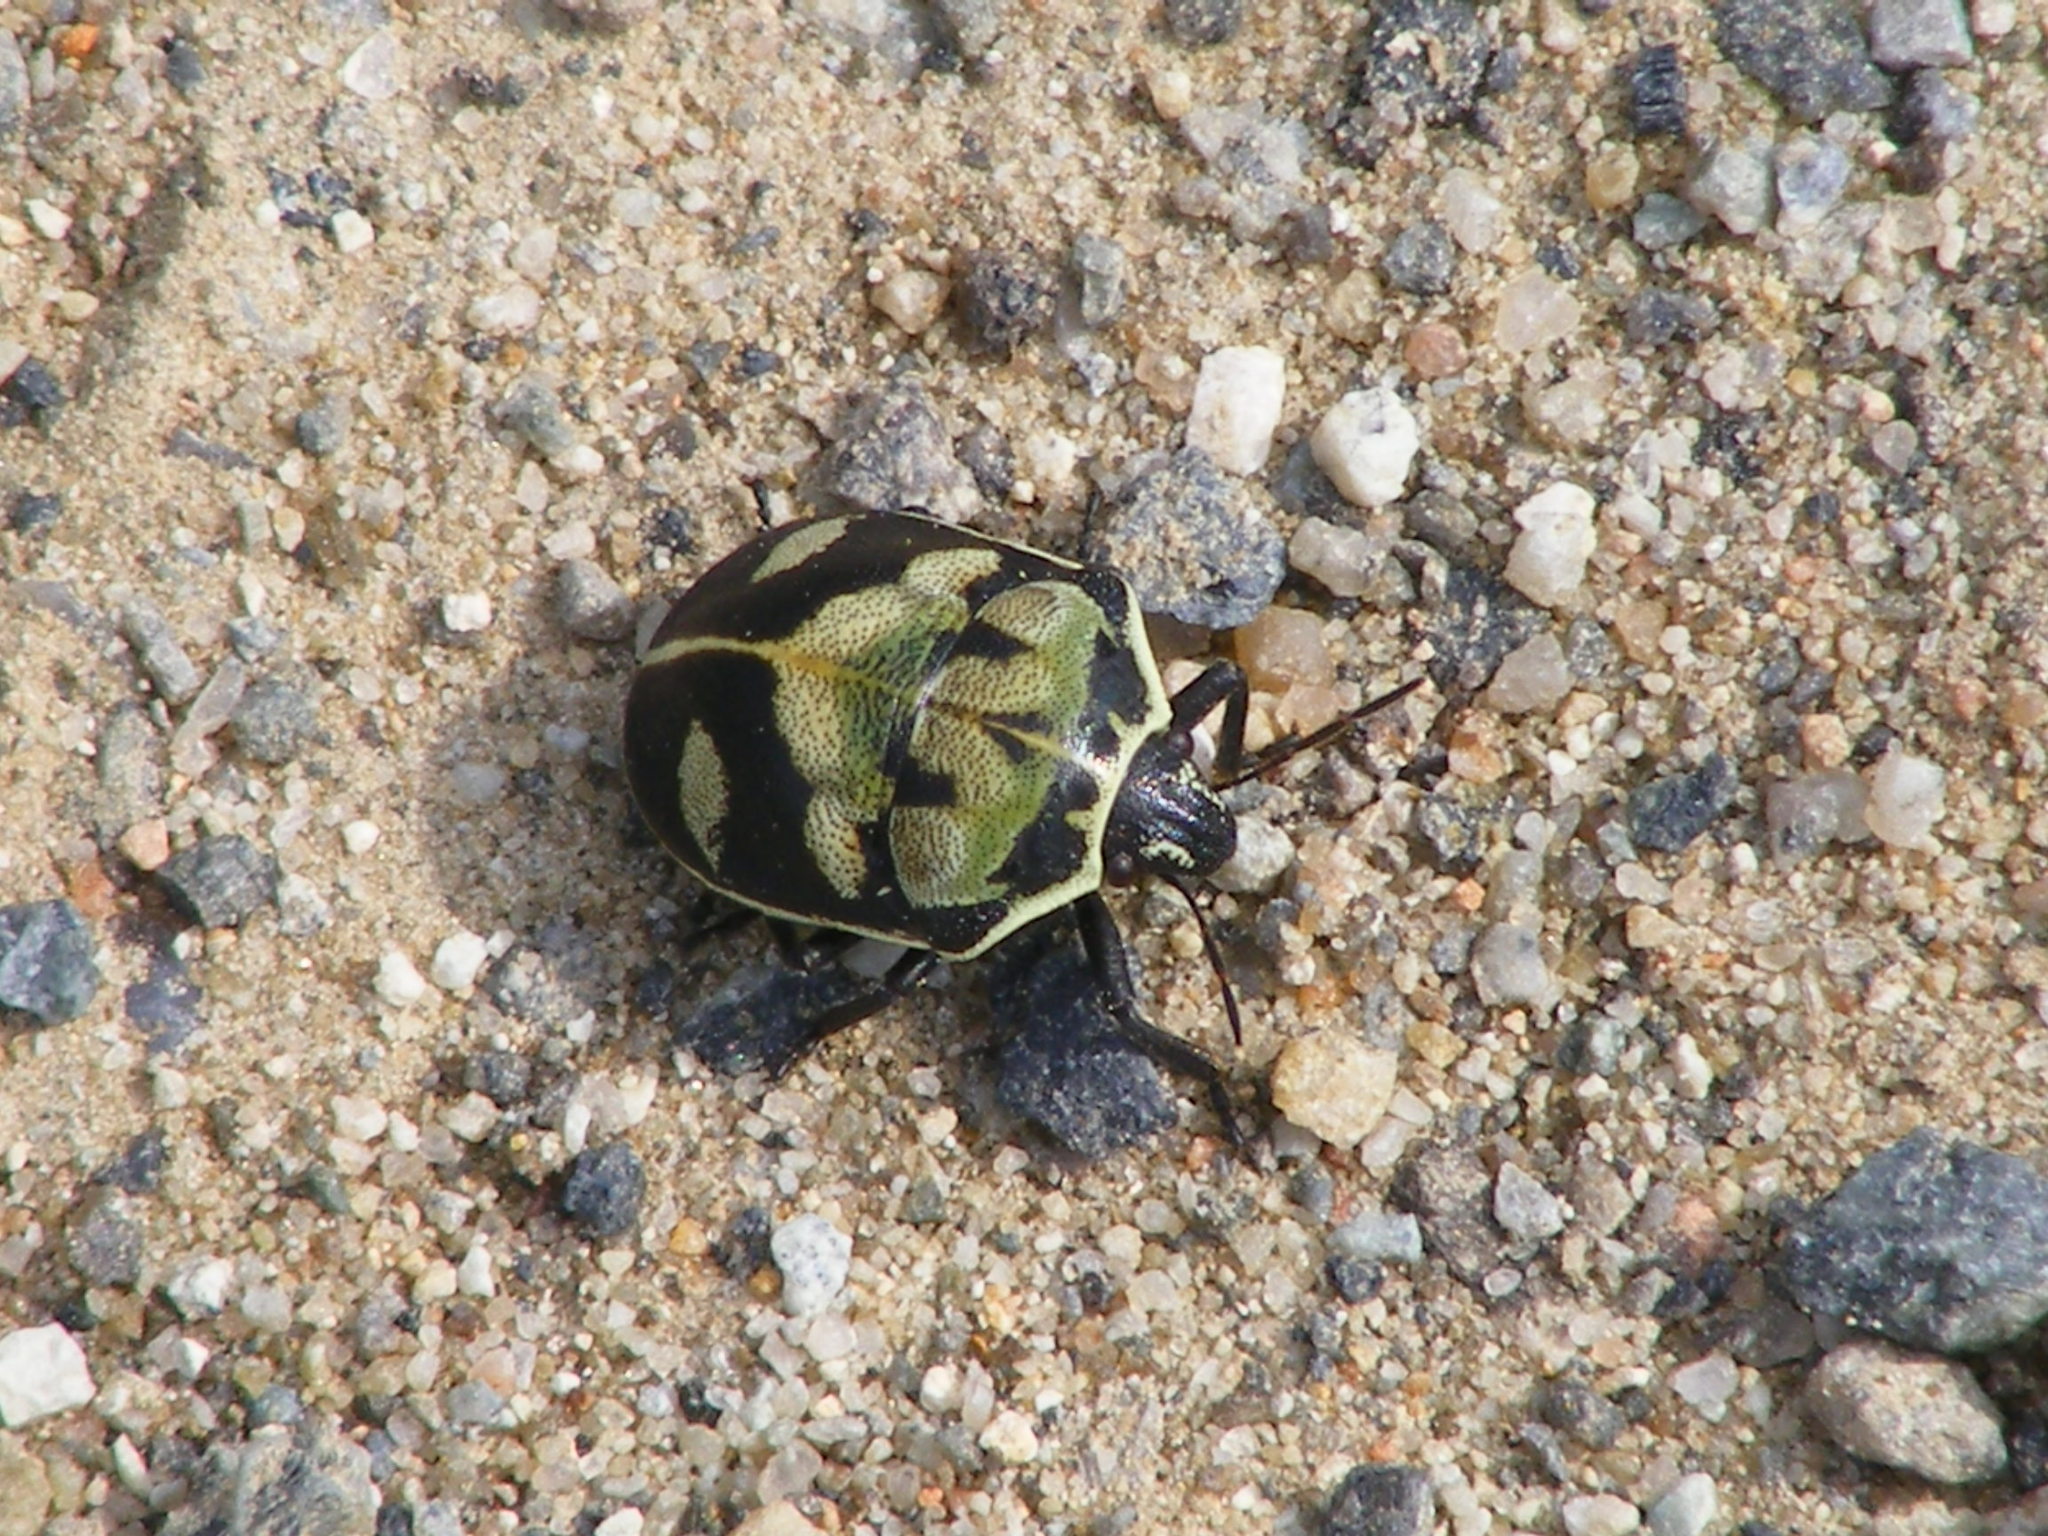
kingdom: Animalia
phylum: Arthropoda
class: Insecta
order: Hemiptera
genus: Deroplax
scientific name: Deroplax silphoides
